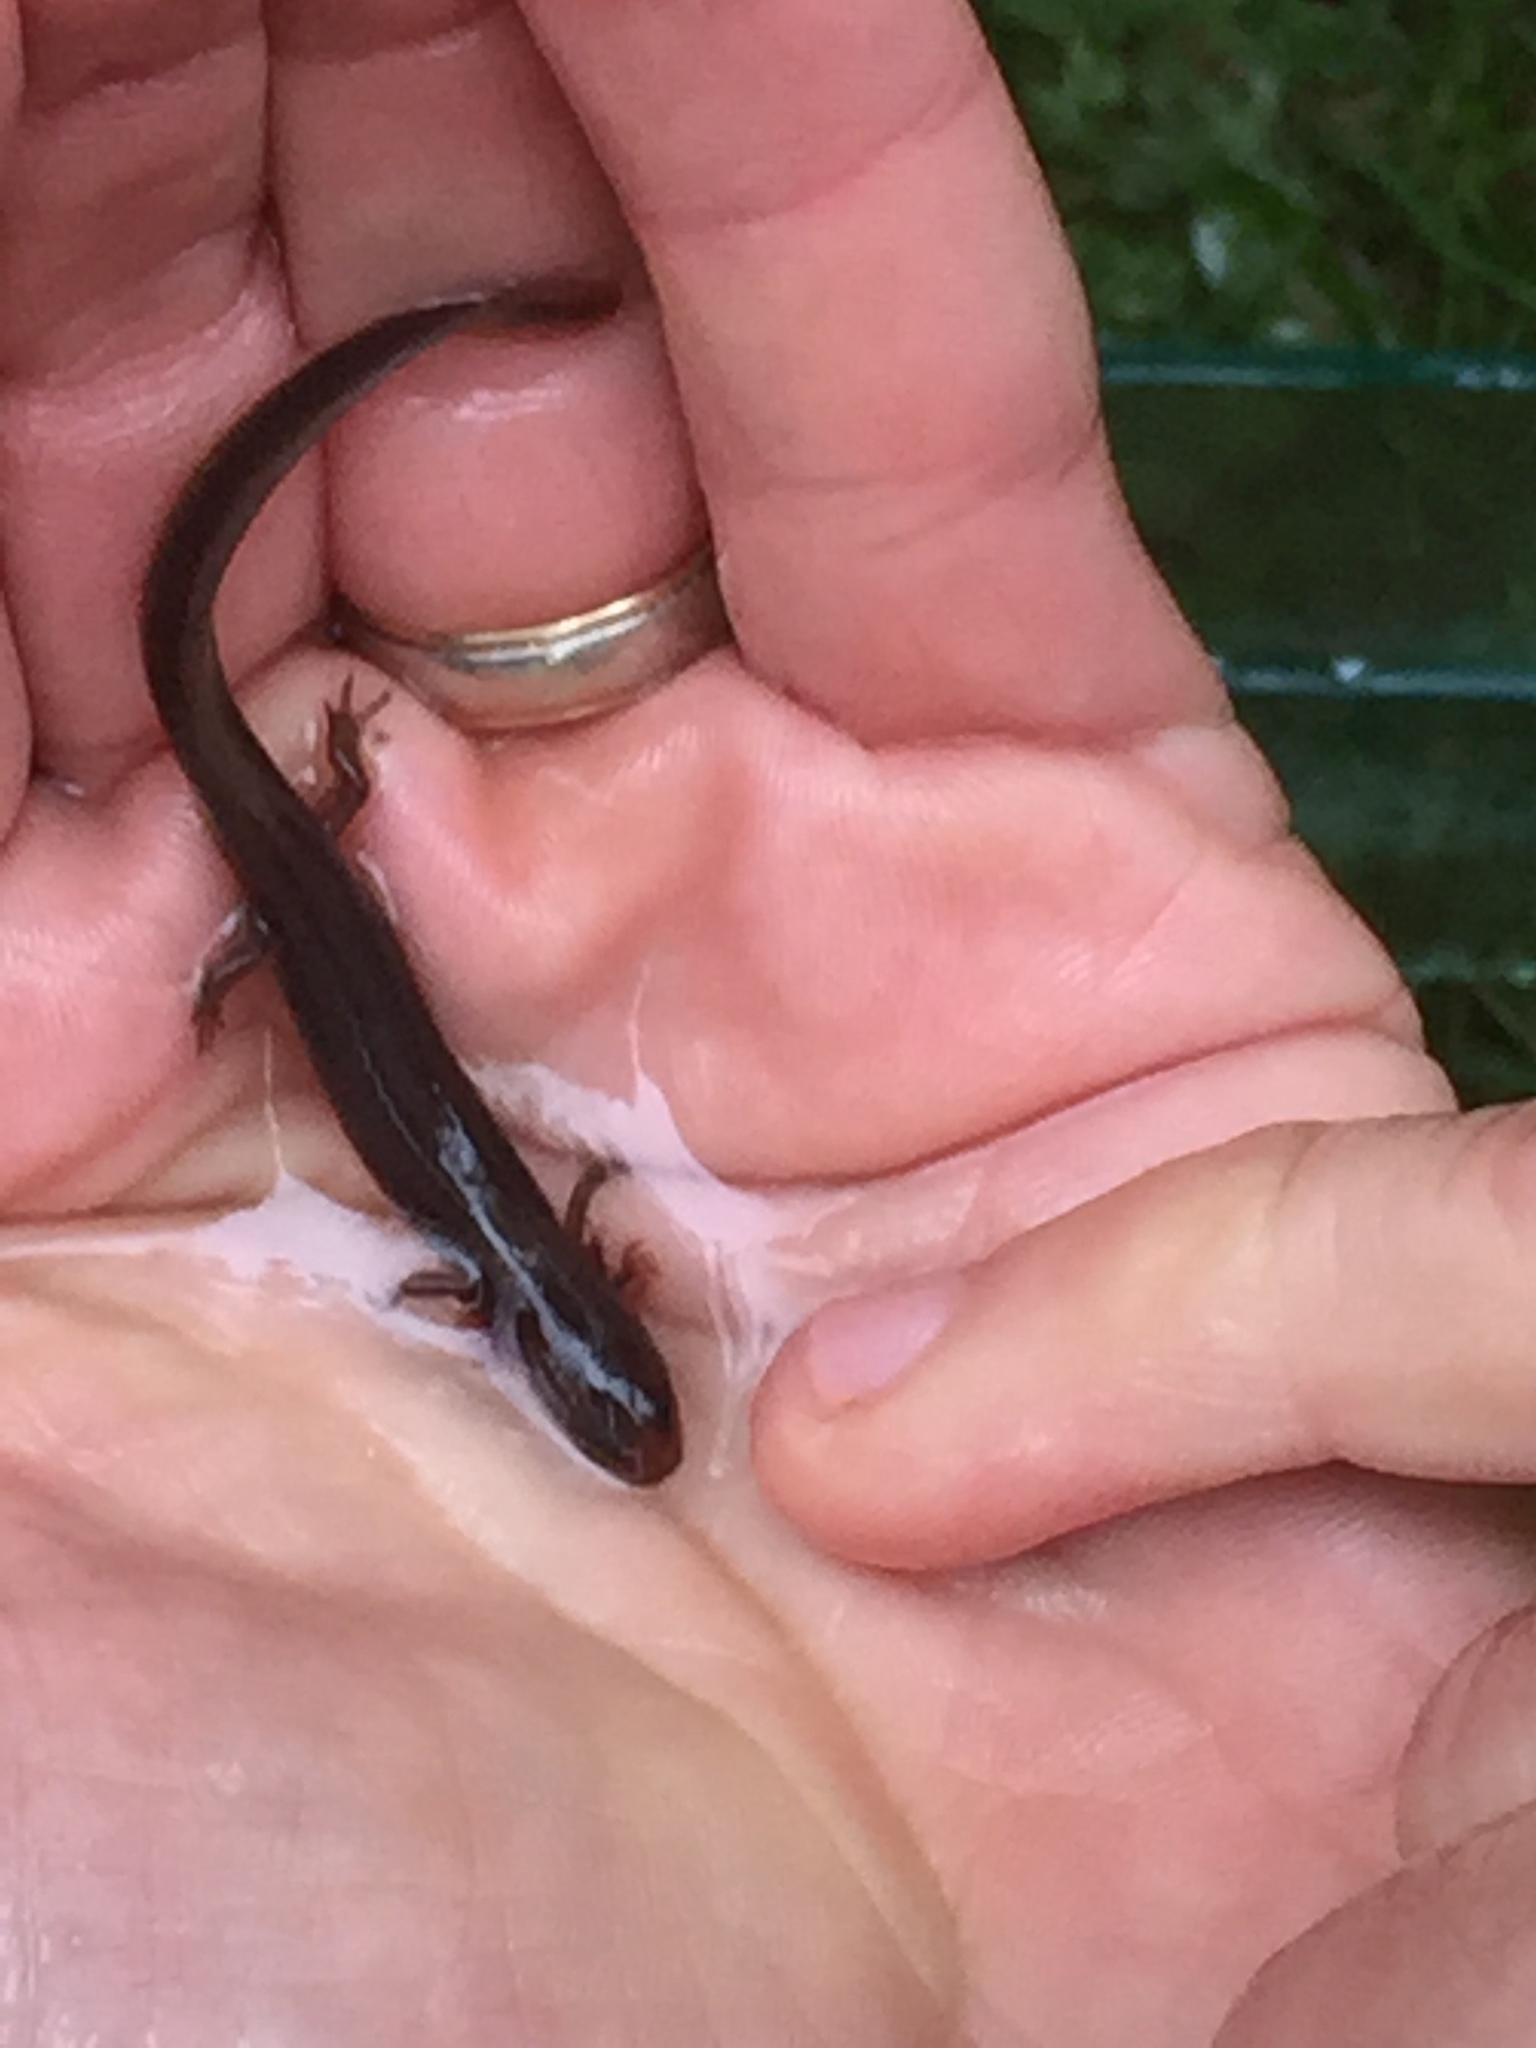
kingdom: Animalia
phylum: Chordata
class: Amphibia
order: Caudata
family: Plethodontidae
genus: Eurycea
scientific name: Eurycea bislineata
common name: Northern two-lined salamander
